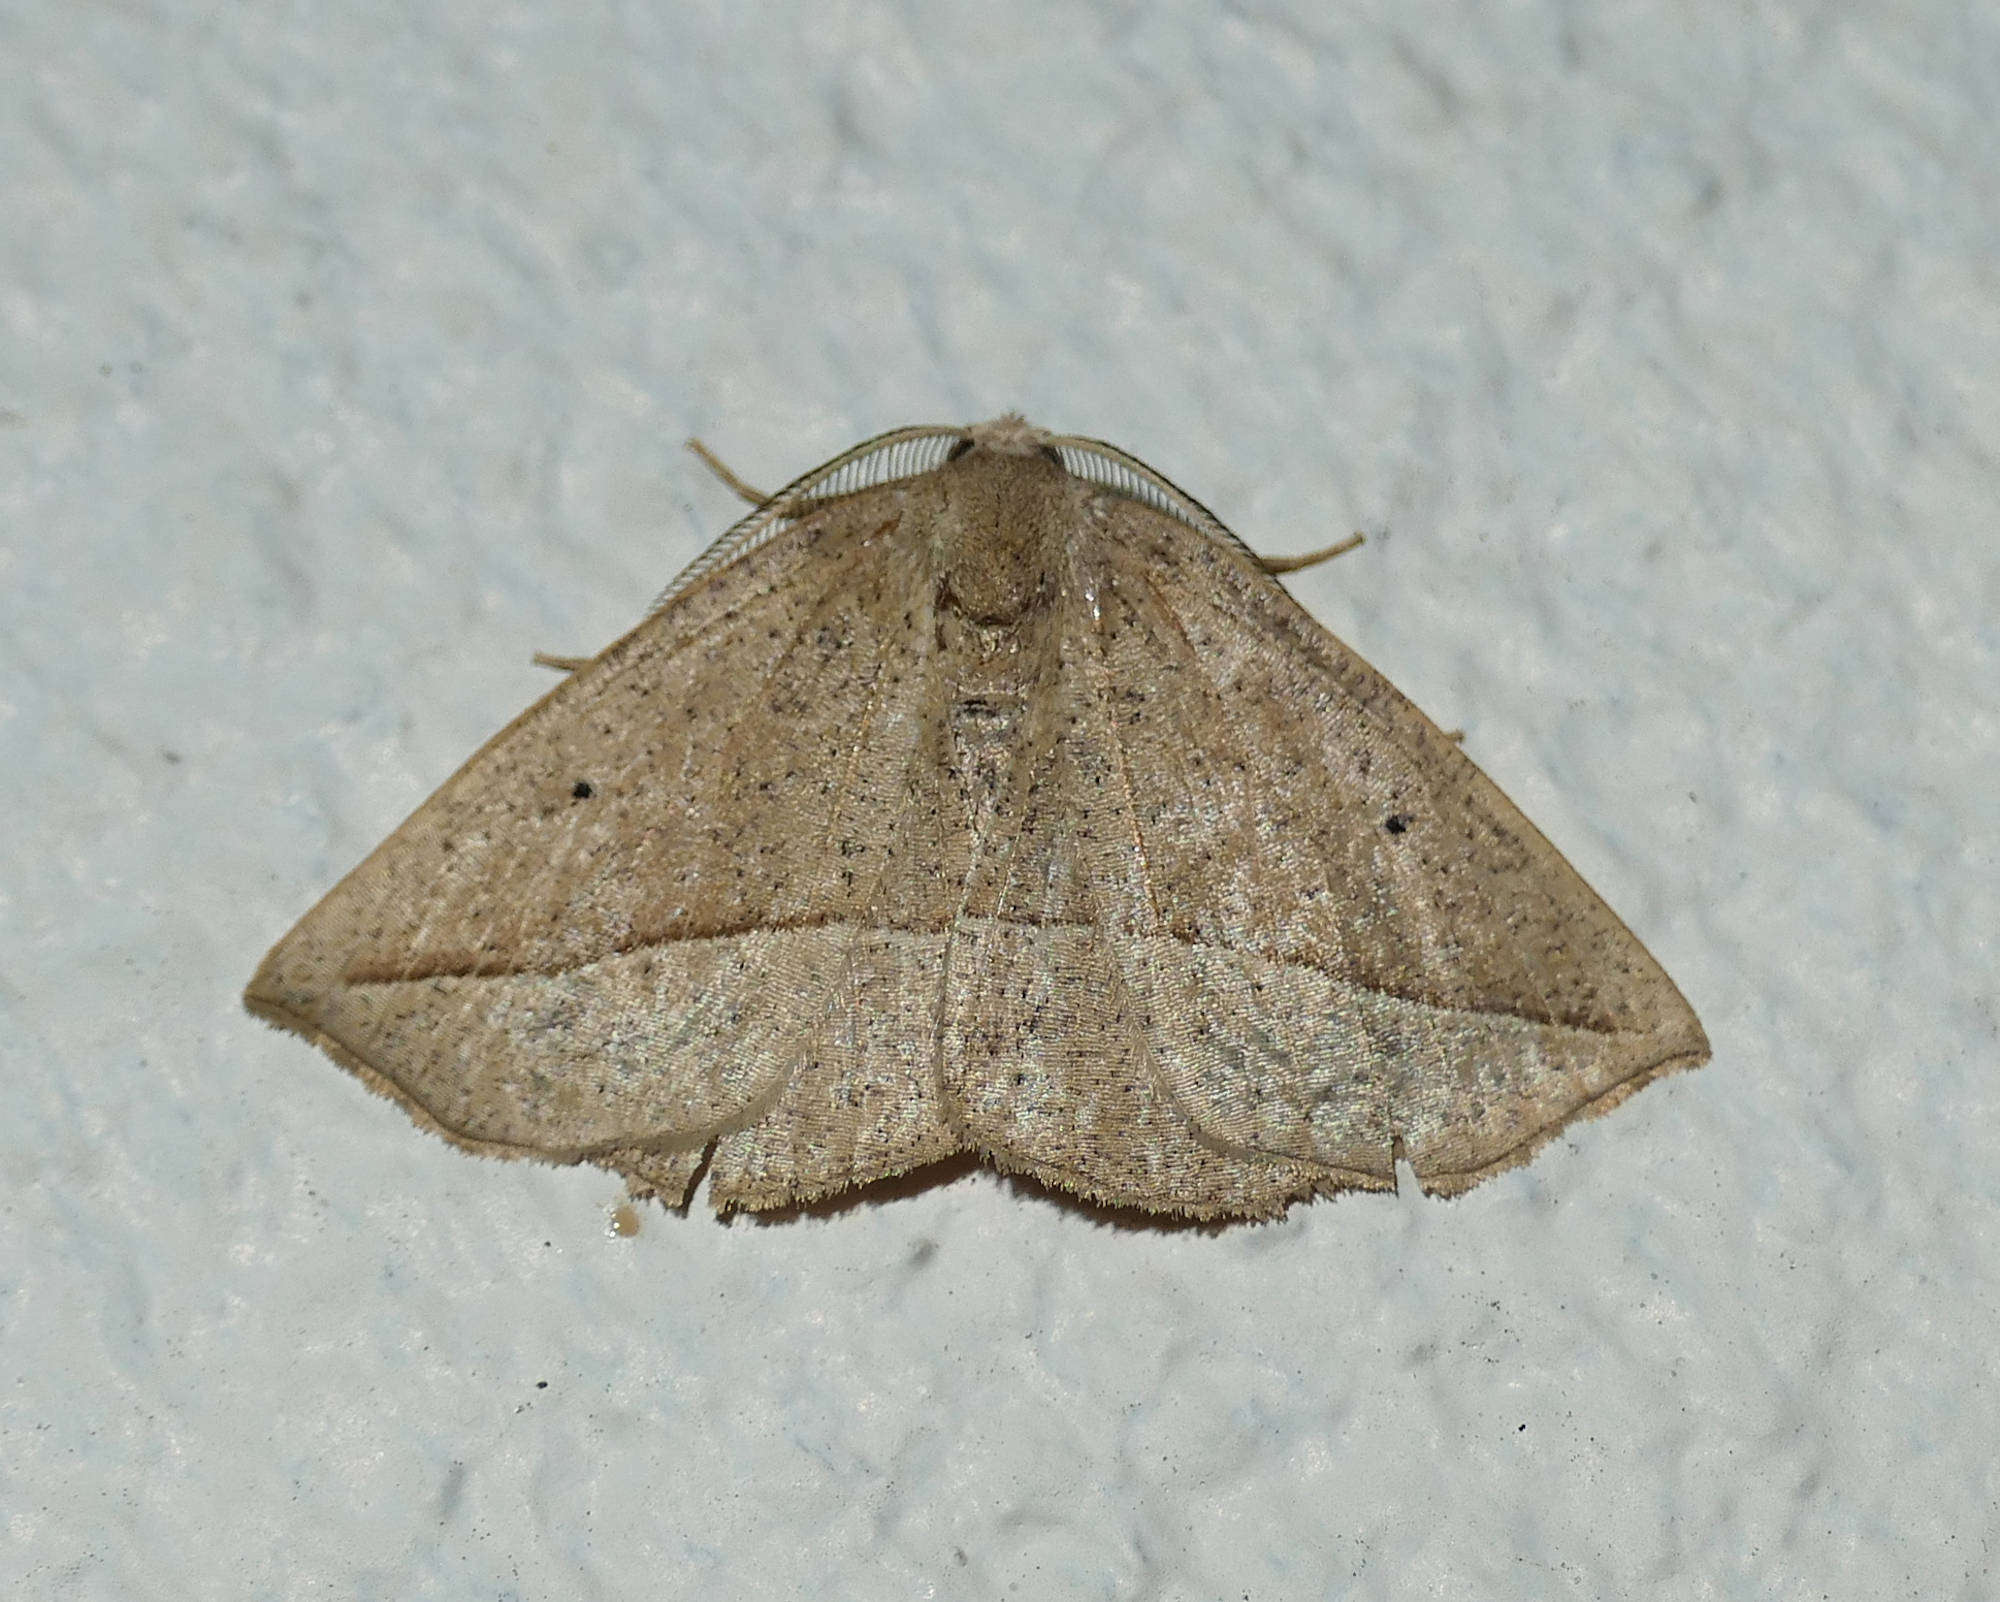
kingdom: Animalia
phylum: Arthropoda
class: Insecta
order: Lepidoptera
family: Geometridae
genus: Eusarca
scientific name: Eusarca confusaria
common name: Confused eusarca
